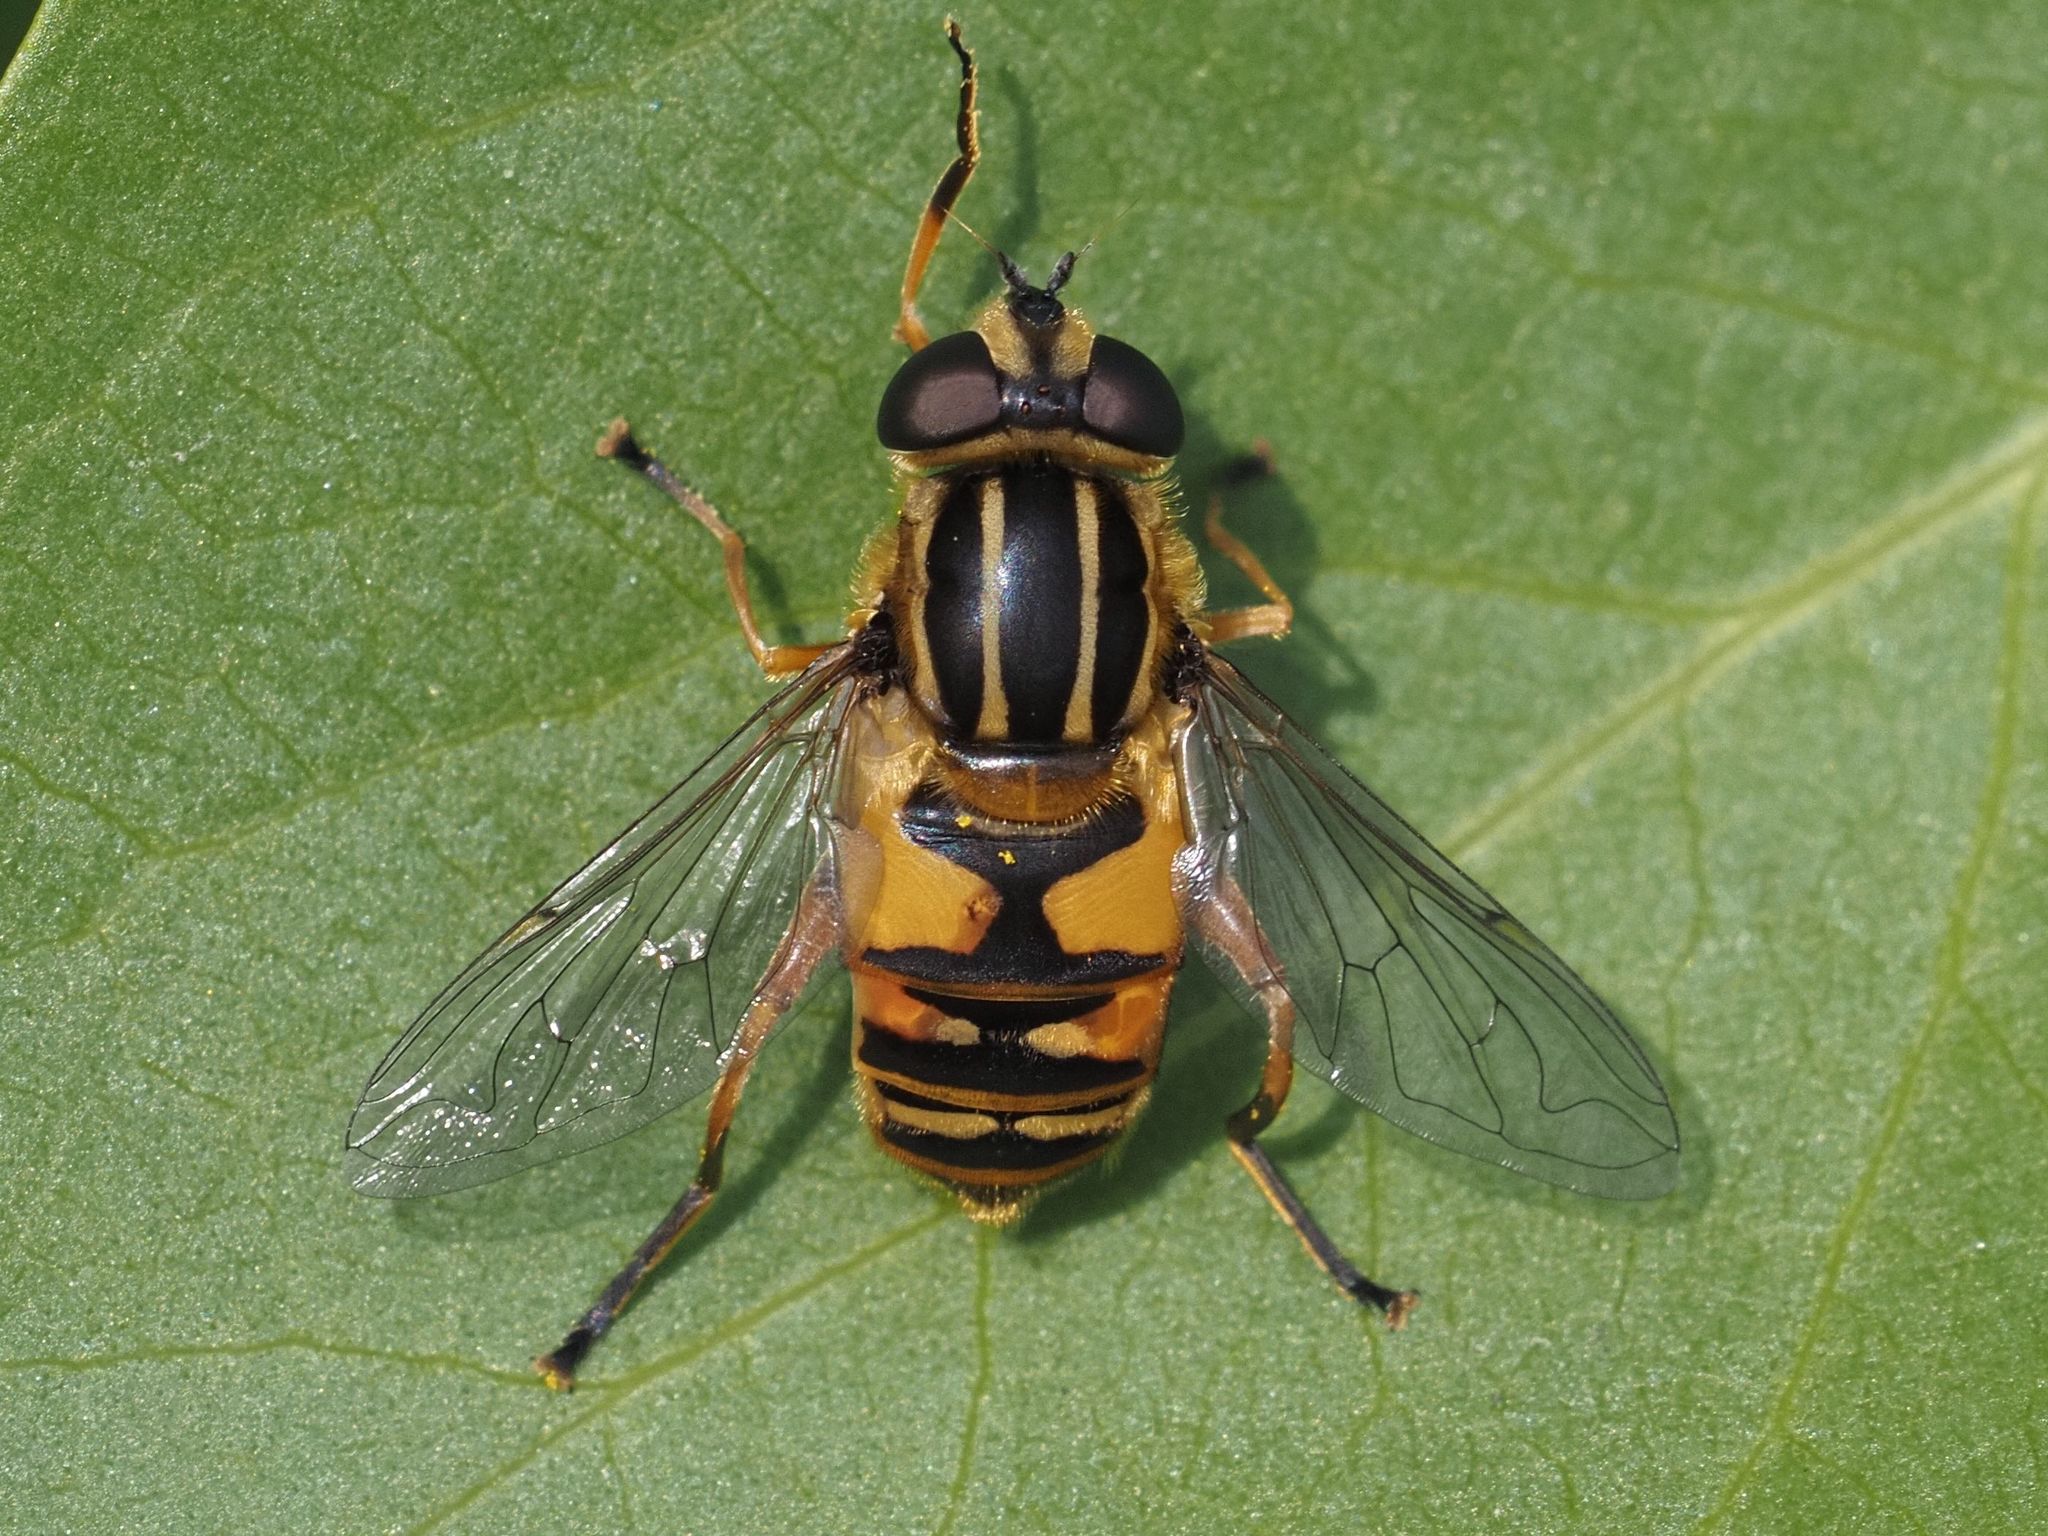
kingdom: Animalia
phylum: Arthropoda
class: Insecta
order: Diptera
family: Syrphidae
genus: Helophilus
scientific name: Helophilus pendulus
